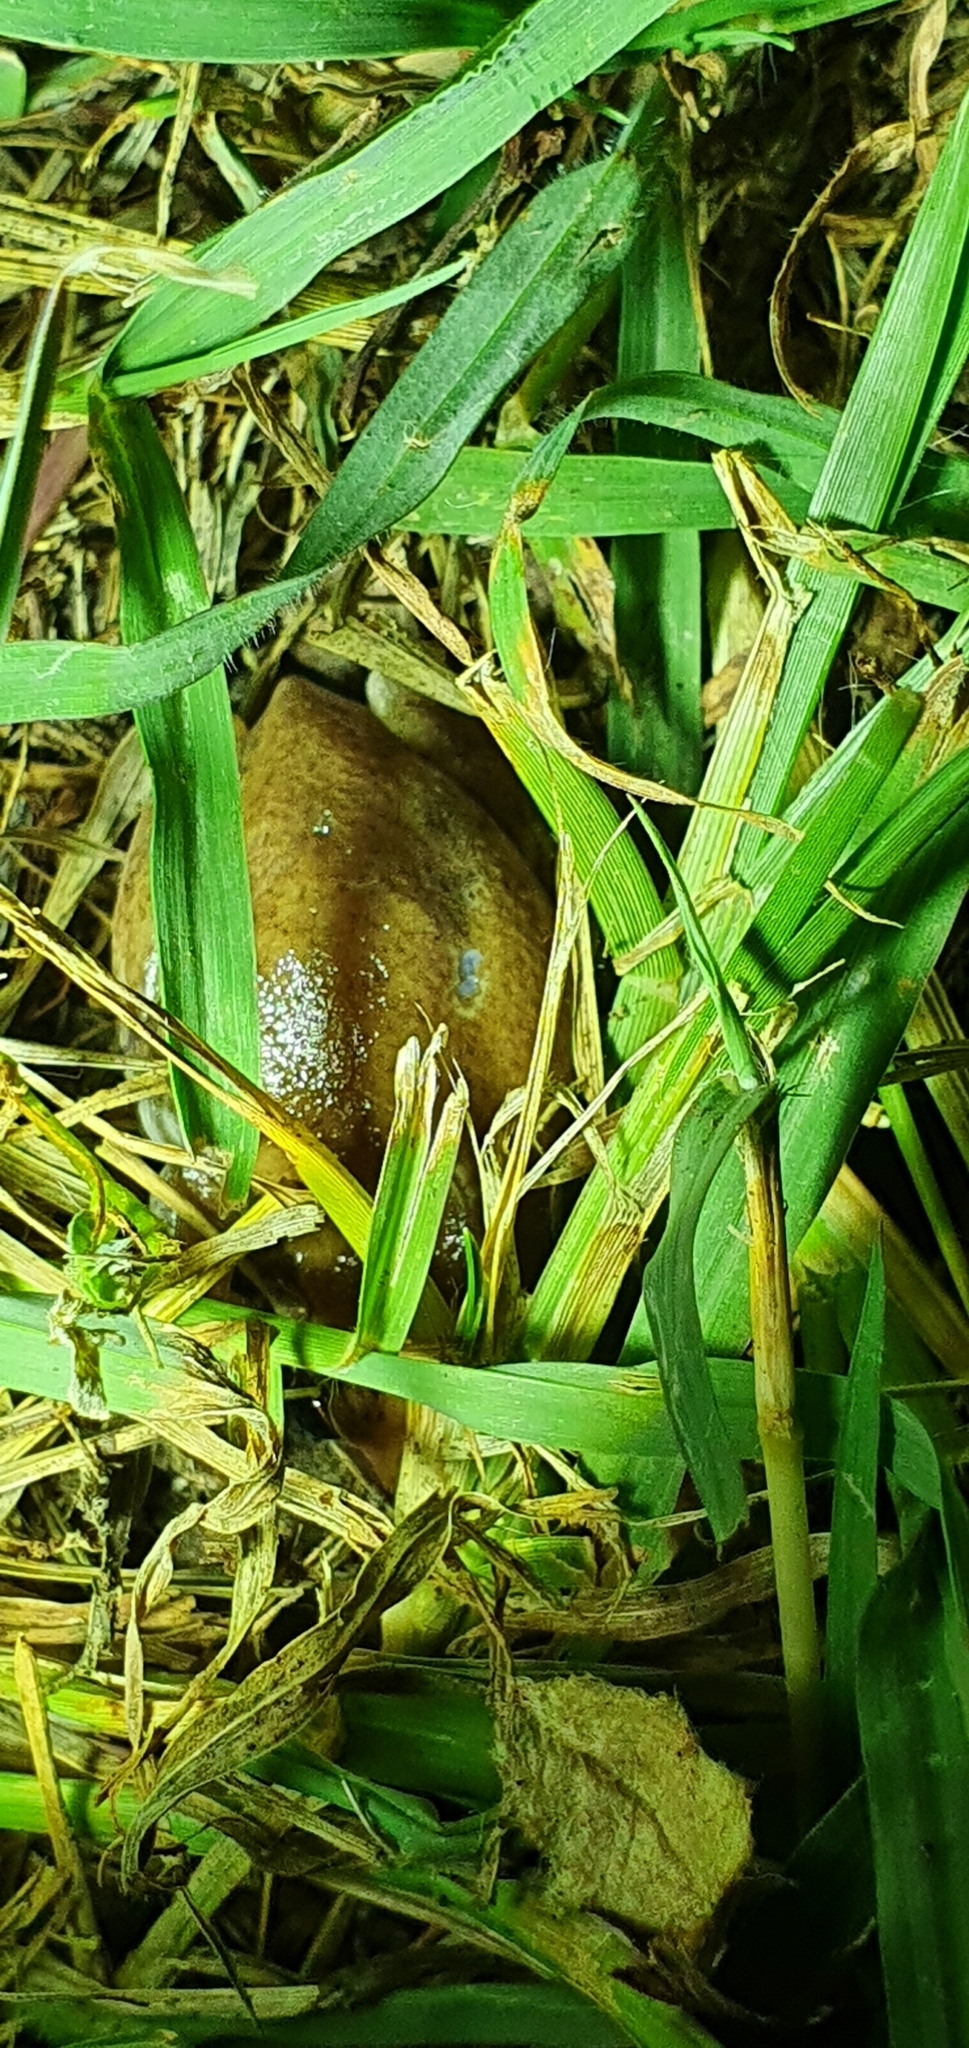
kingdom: Animalia
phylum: Chordata
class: Amphibia
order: Anura
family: Pelodryadidae
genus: Litoria
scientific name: Litoria rubella
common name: Desert tree frog
